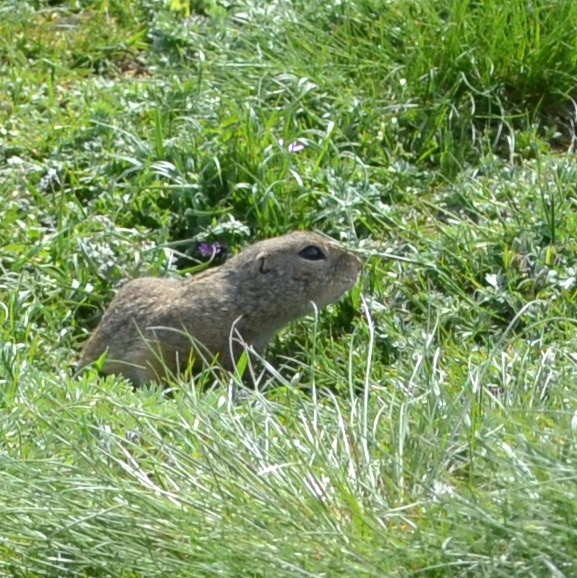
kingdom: Animalia
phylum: Chordata
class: Mammalia
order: Rodentia
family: Sciuridae
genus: Spermophilus
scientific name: Spermophilus citellus
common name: European ground squirrel
